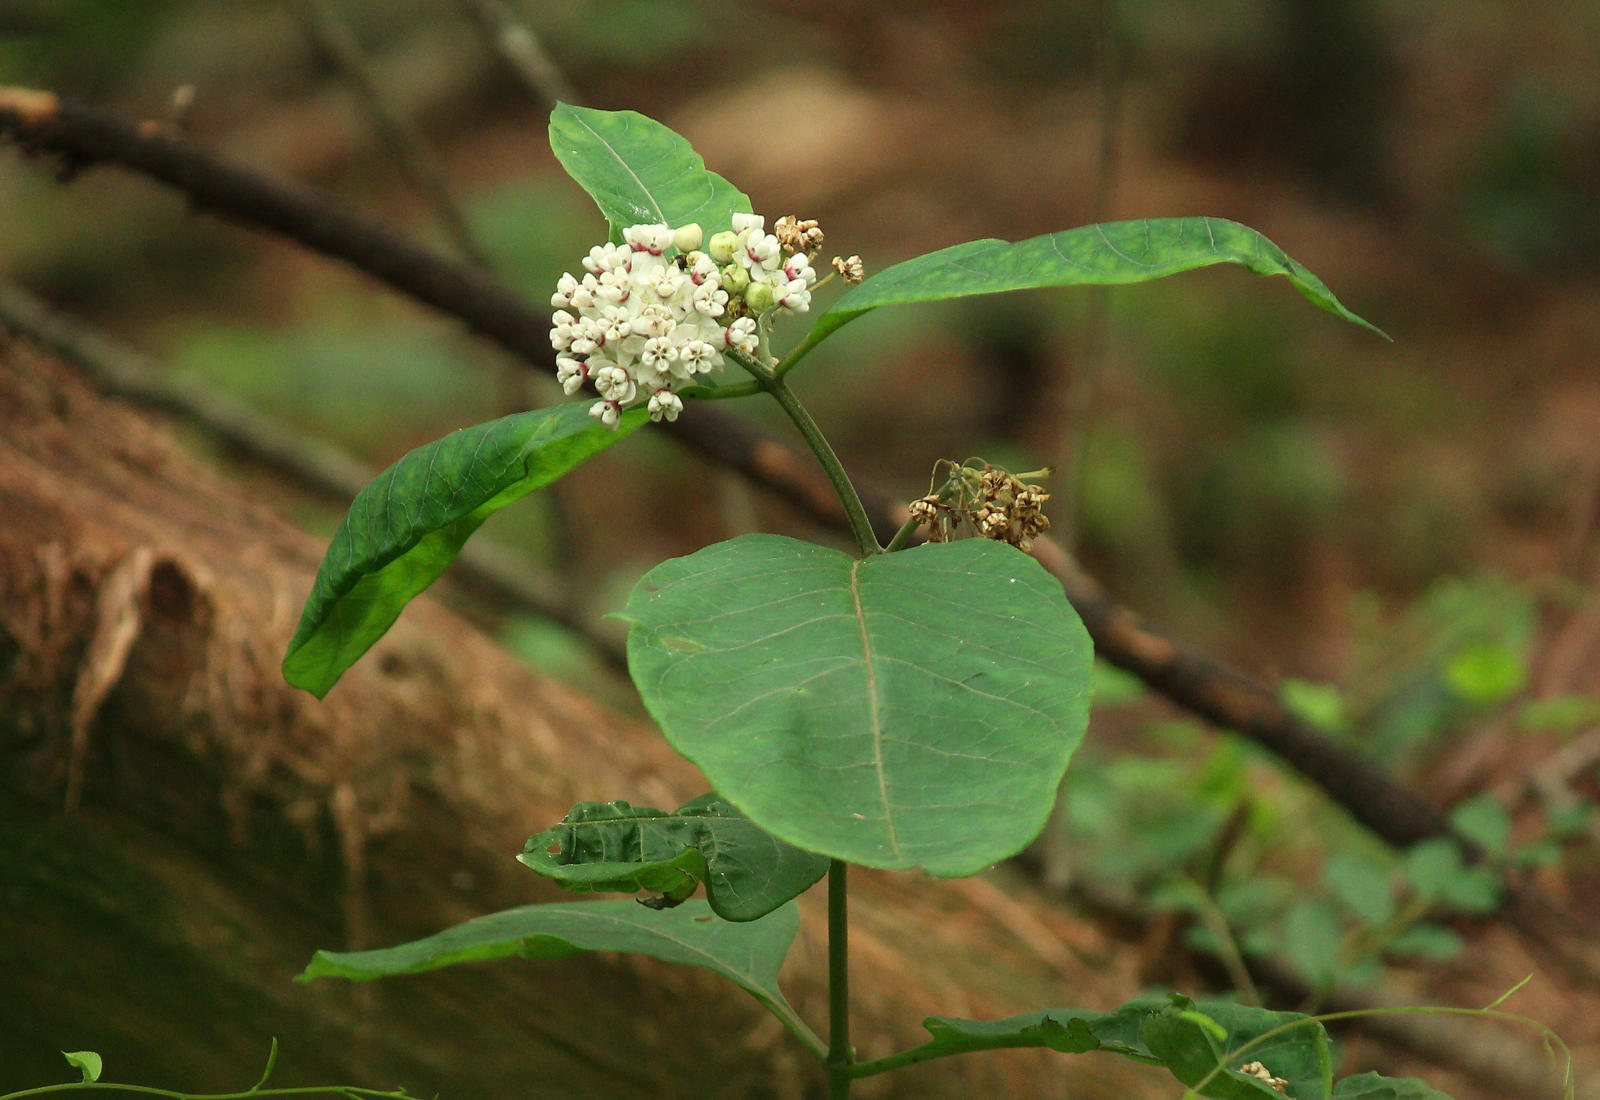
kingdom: Plantae
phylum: Tracheophyta
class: Magnoliopsida
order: Gentianales
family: Apocynaceae
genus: Asclepias
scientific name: Asclepias variegata
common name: Variegated milkweed
